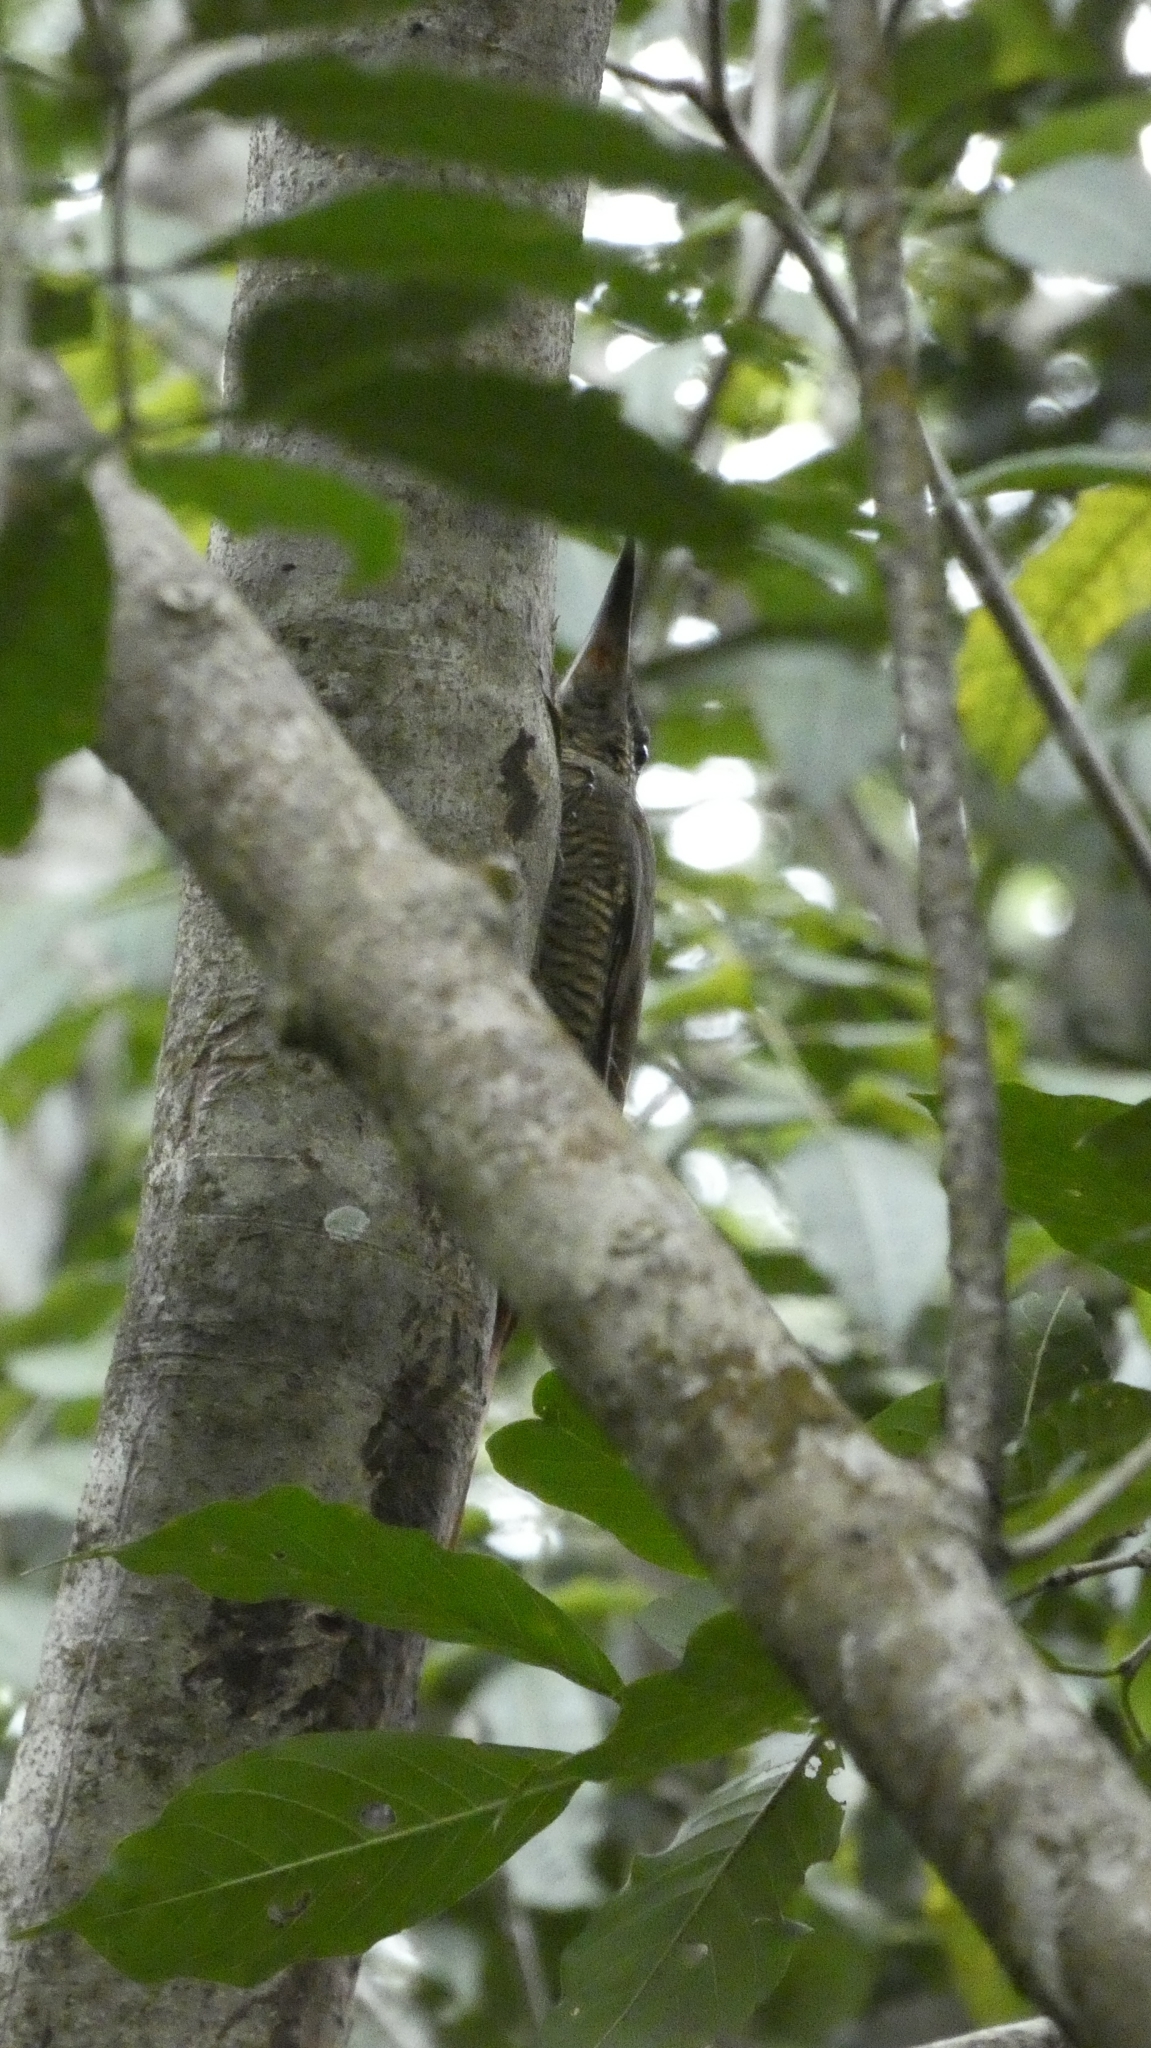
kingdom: Animalia
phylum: Chordata
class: Aves
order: Passeriformes
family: Furnariidae
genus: Dendrocolaptes
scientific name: Dendrocolaptes sanctithomae
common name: Northern barred-woodcreeper
